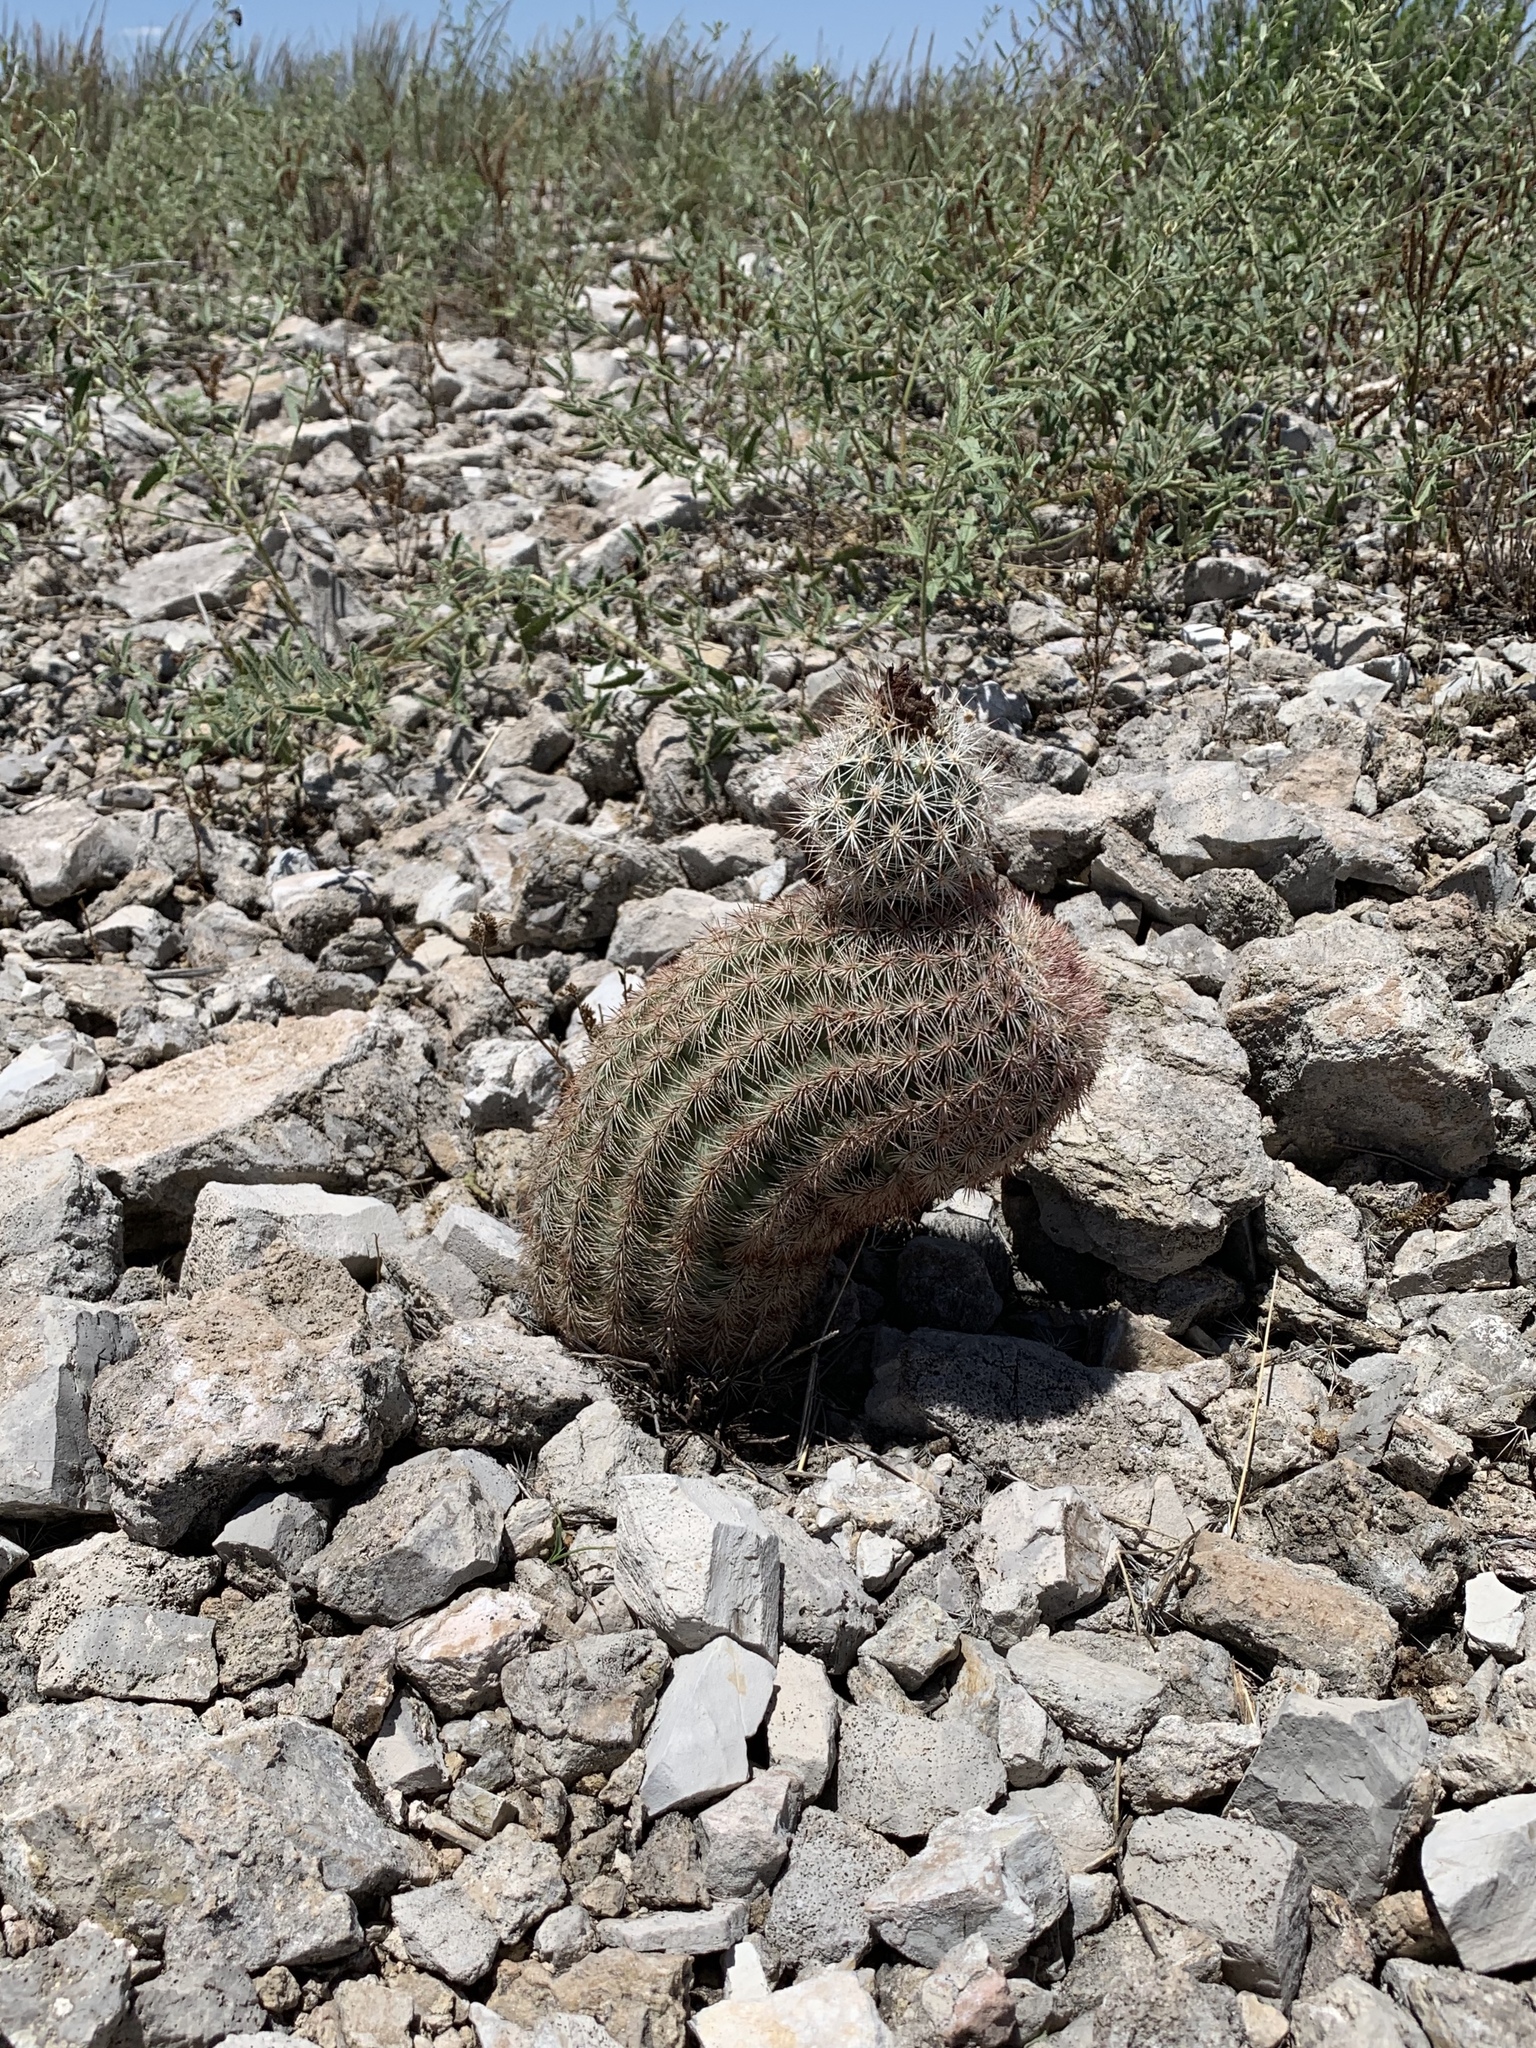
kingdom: Plantae
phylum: Tracheophyta
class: Magnoliopsida
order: Caryophyllales
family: Cactaceae
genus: Echinocereus
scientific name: Echinocereus dasyacanthus
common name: Spiny hedgehog cactus
